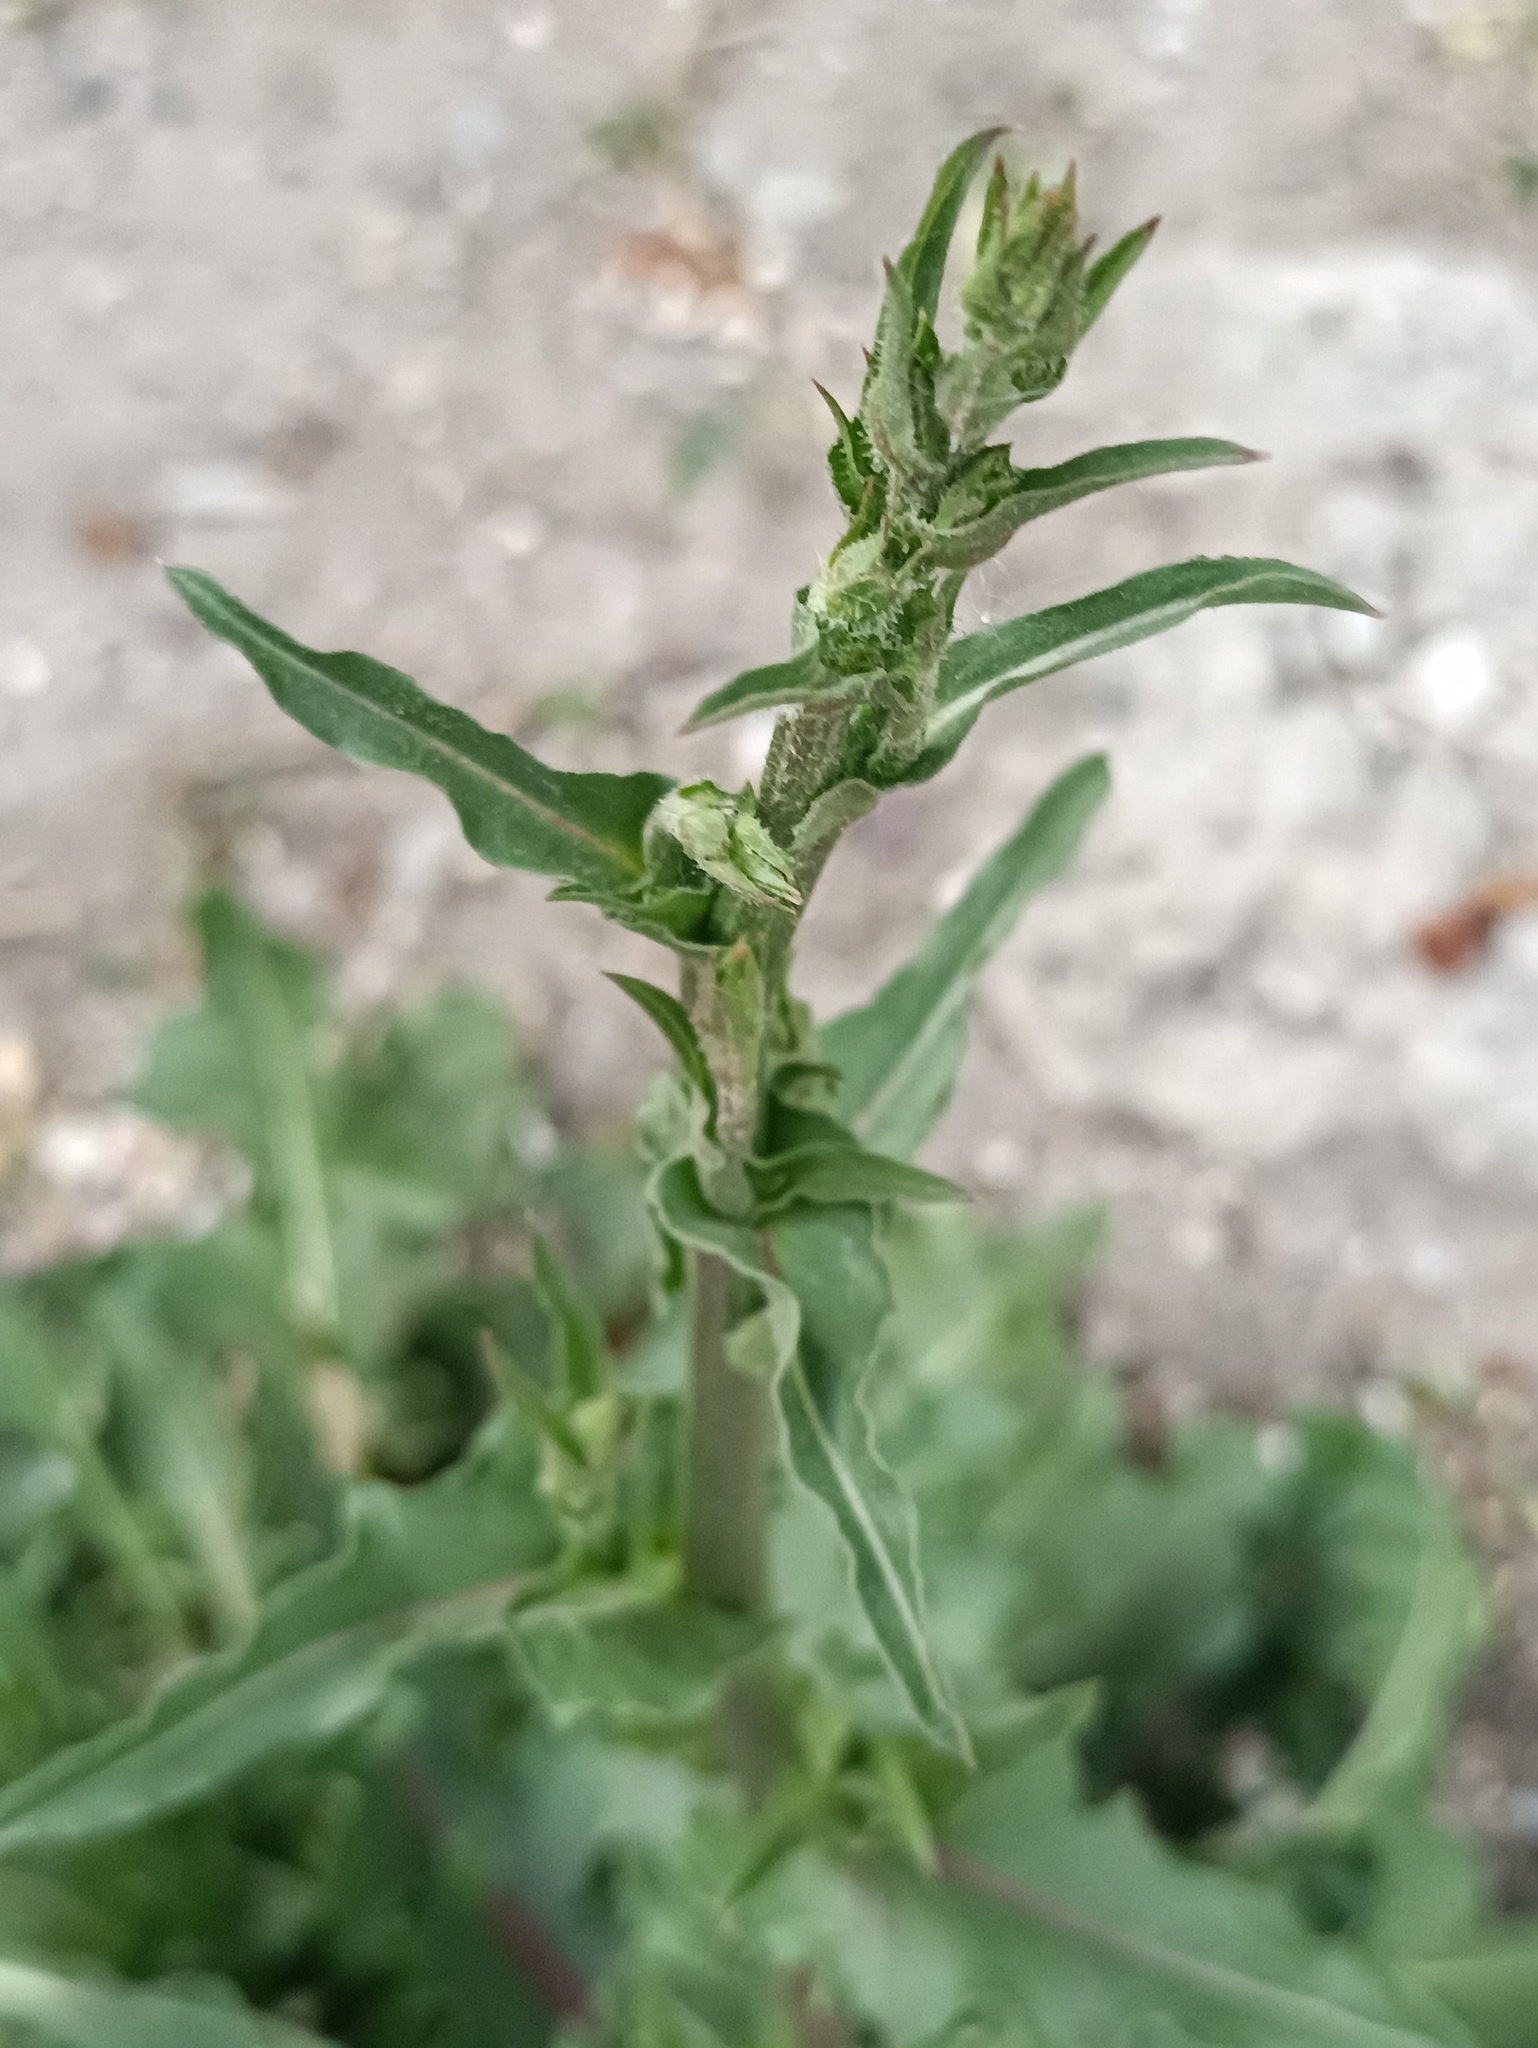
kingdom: Plantae
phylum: Tracheophyta
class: Magnoliopsida
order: Asterales
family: Asteraceae
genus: Cichorium
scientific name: Cichorium intybus
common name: Chicory
